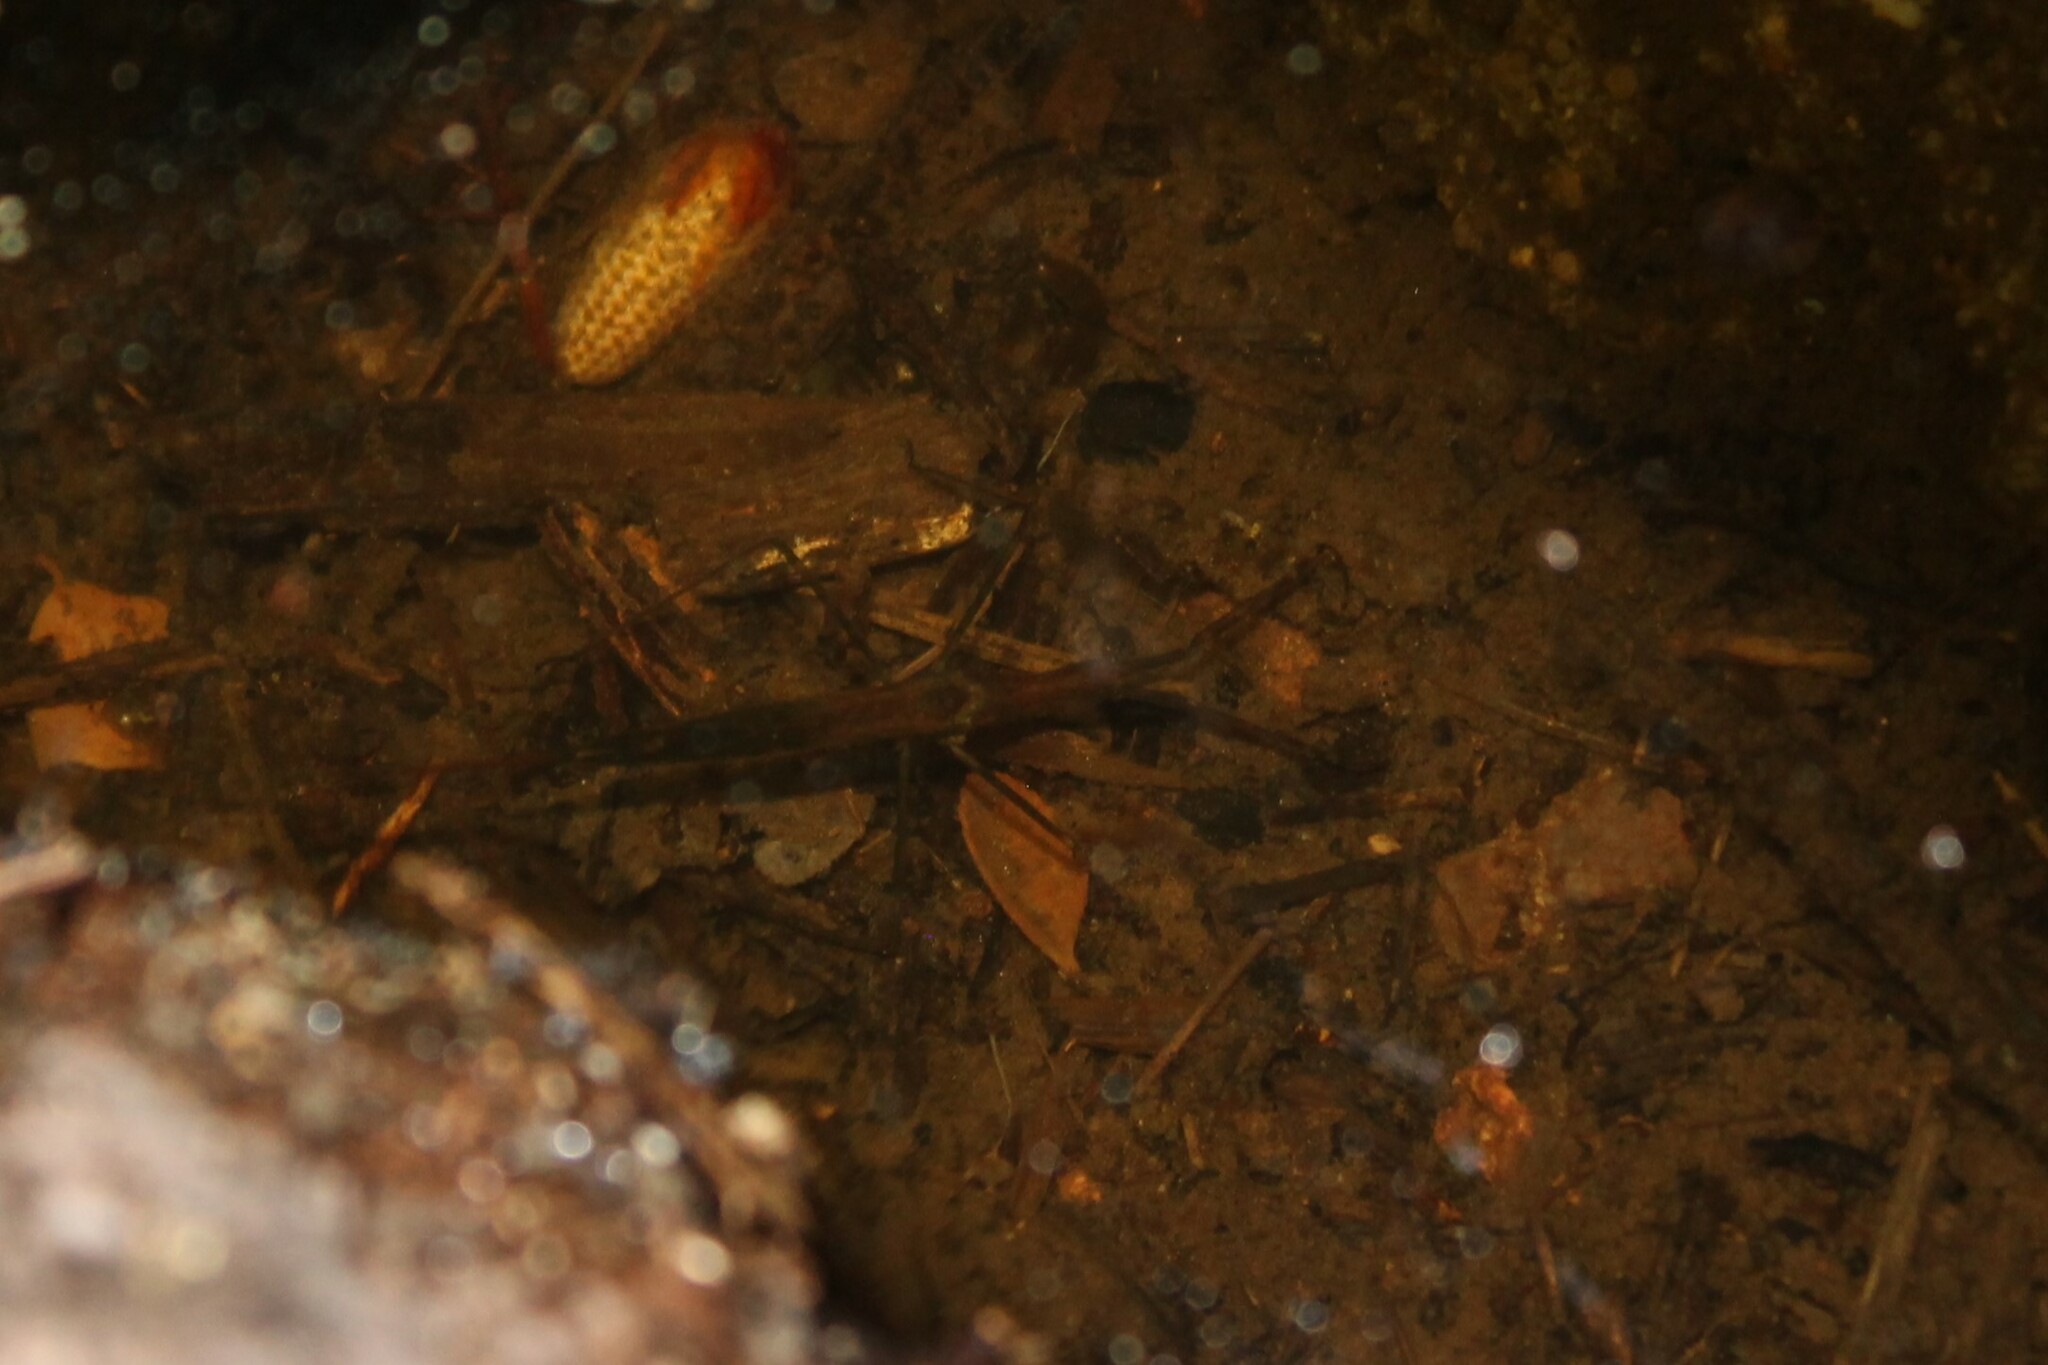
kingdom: Animalia
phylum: Arthropoda
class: Insecta
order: Hemiptera
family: Nepidae
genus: Ranatra
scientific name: Ranatra brevicollis
